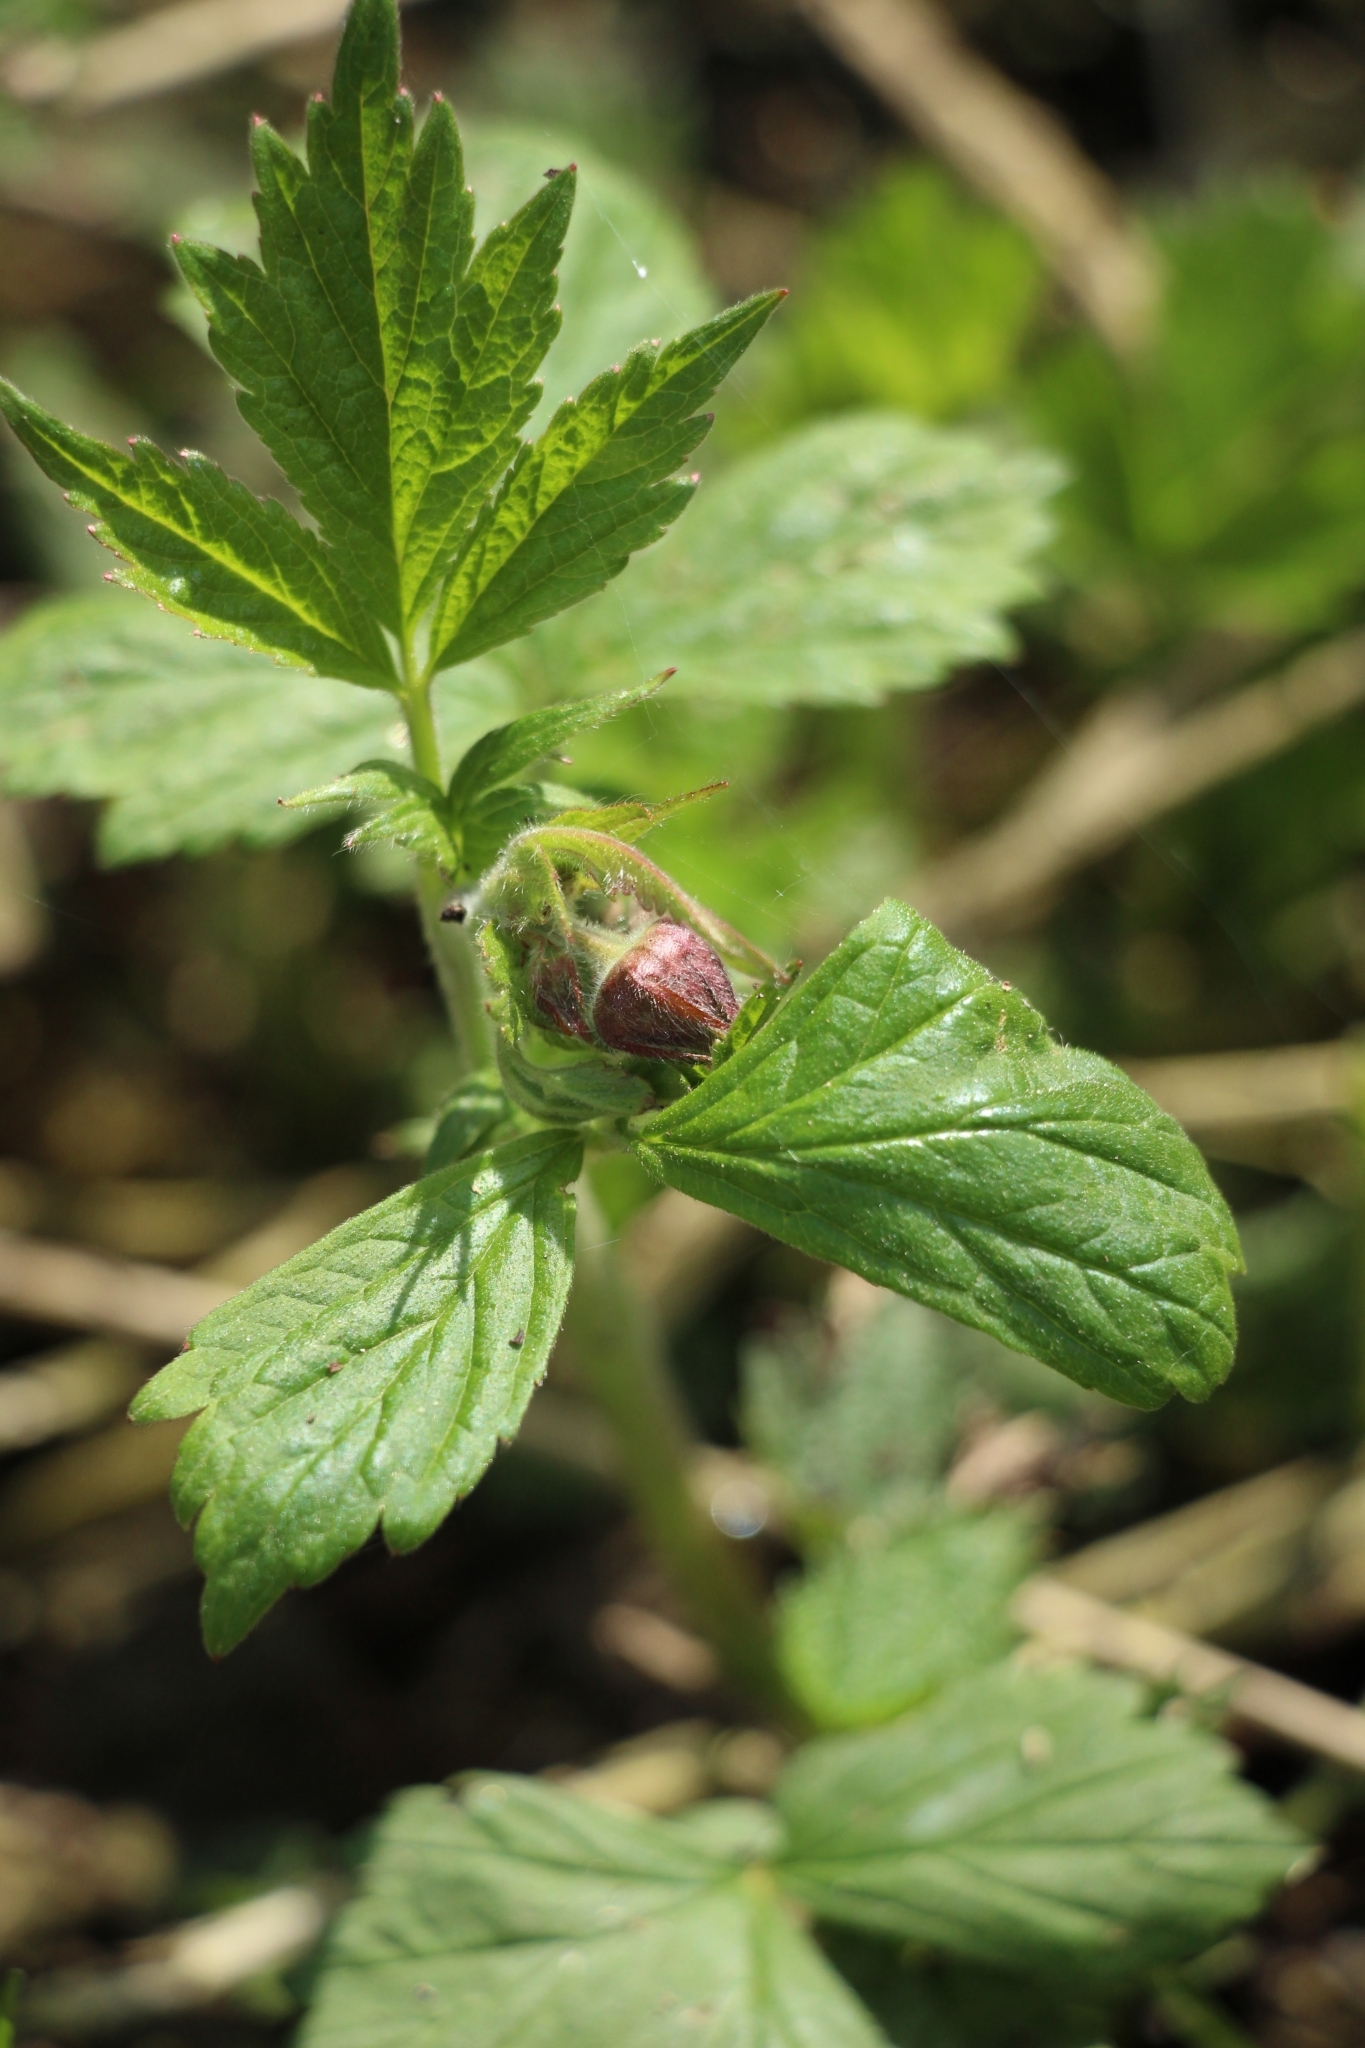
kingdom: Plantae
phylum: Tracheophyta
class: Magnoliopsida
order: Rosales
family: Rosaceae
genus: Geum
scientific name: Geum rivale
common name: Water avens
